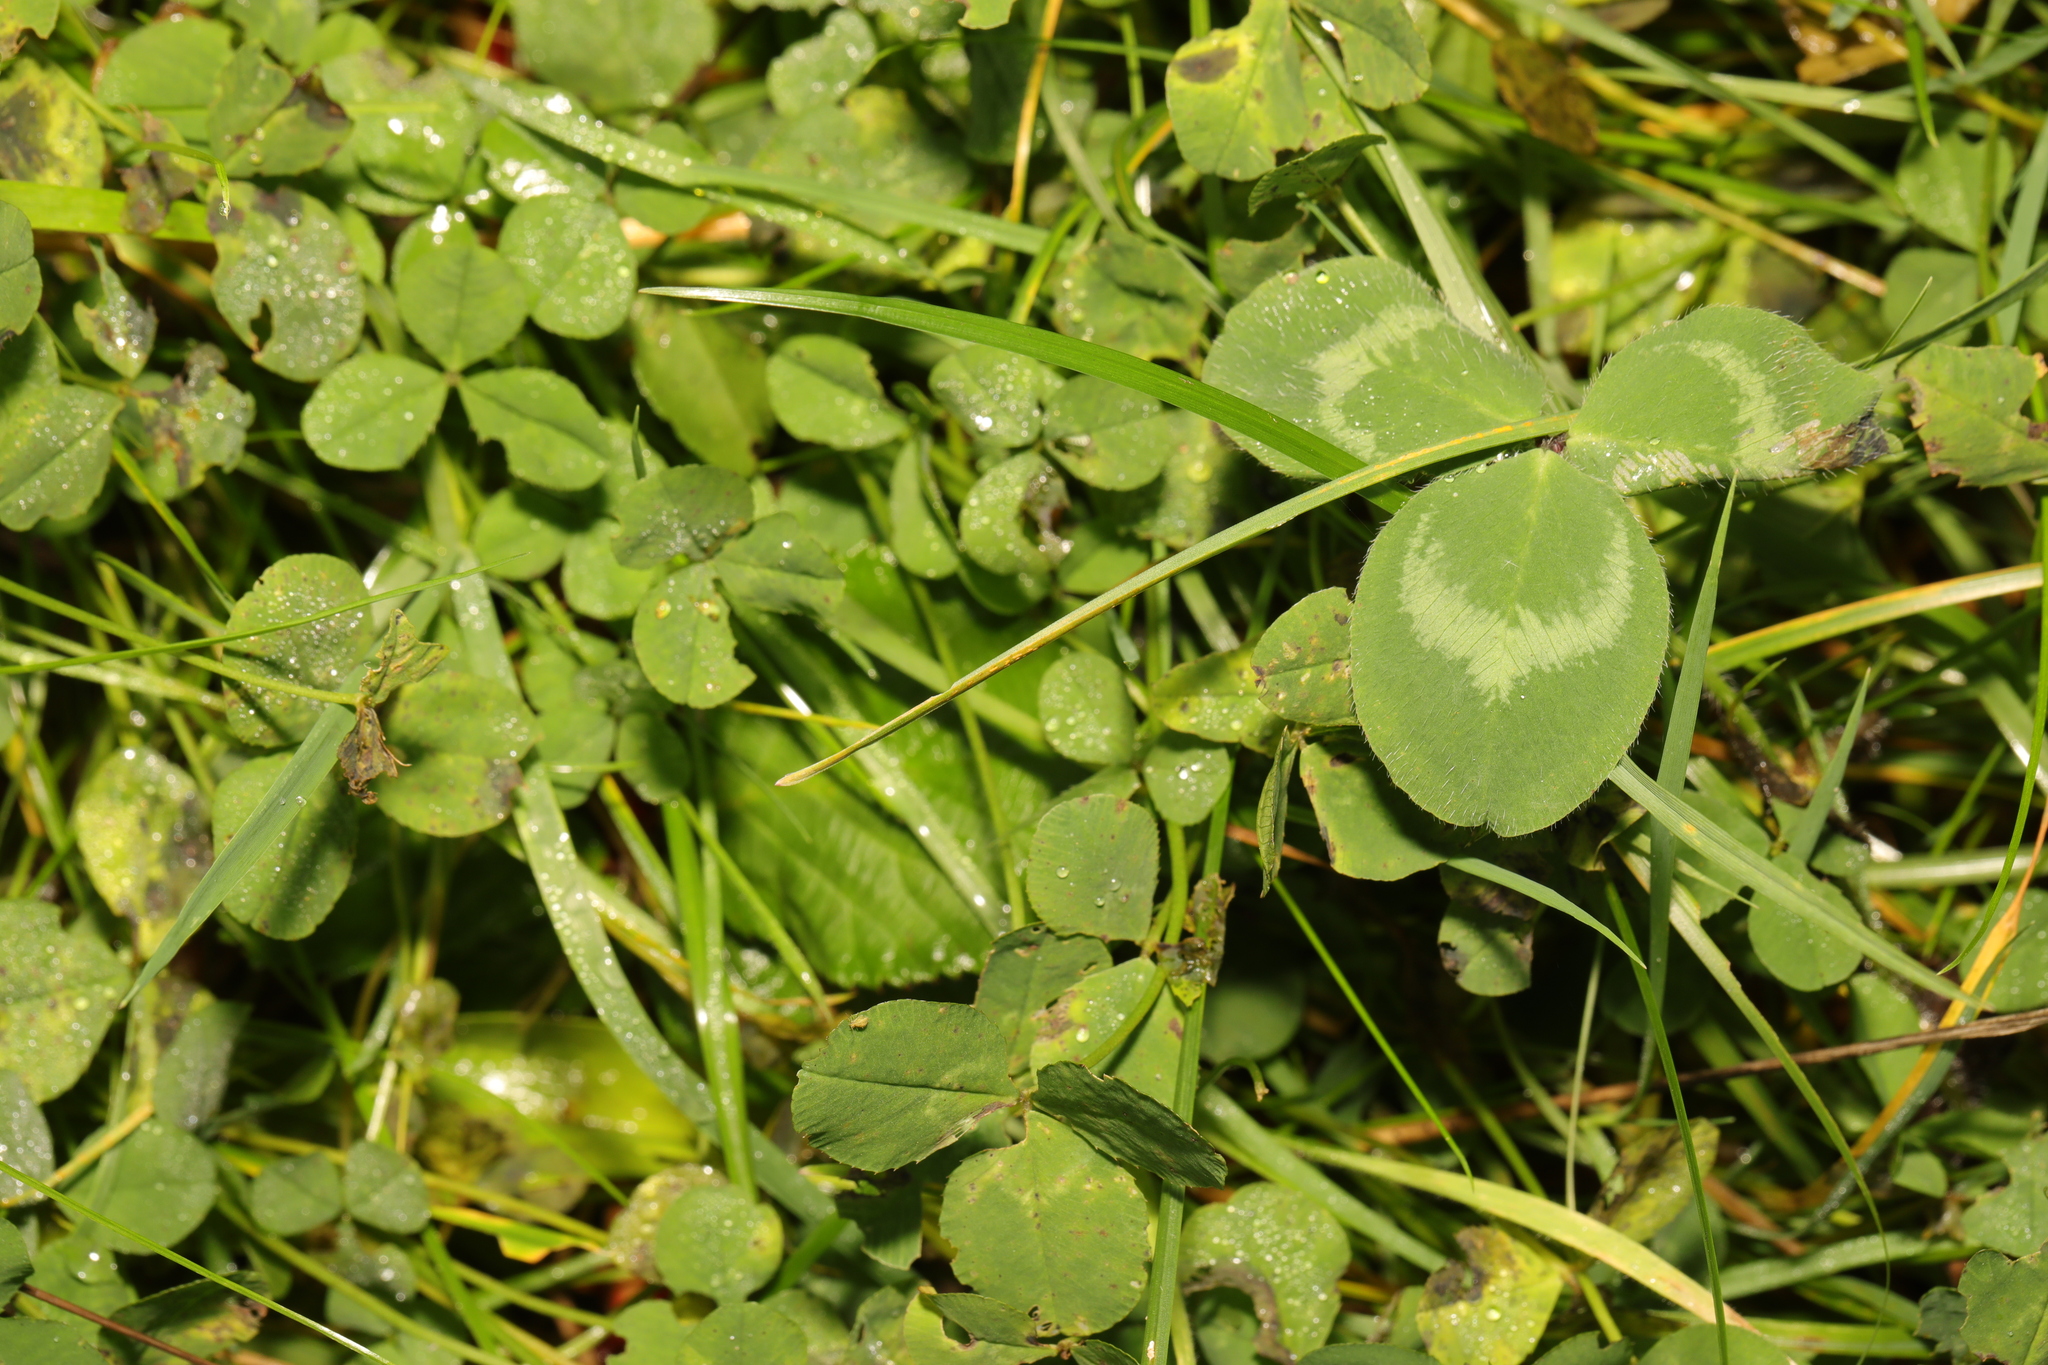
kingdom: Plantae
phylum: Tracheophyta
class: Magnoliopsida
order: Fabales
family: Fabaceae
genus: Trifolium
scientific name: Trifolium pratense
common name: Red clover
